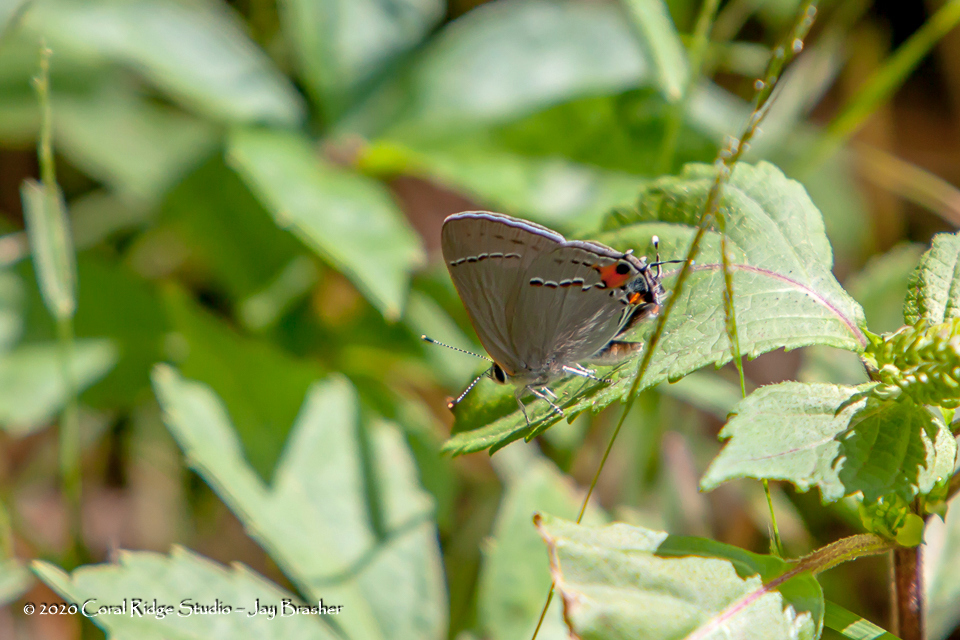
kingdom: Animalia
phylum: Arthropoda
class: Insecta
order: Lepidoptera
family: Lycaenidae
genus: Strymon
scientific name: Strymon melinus
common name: Gray hairstreak
